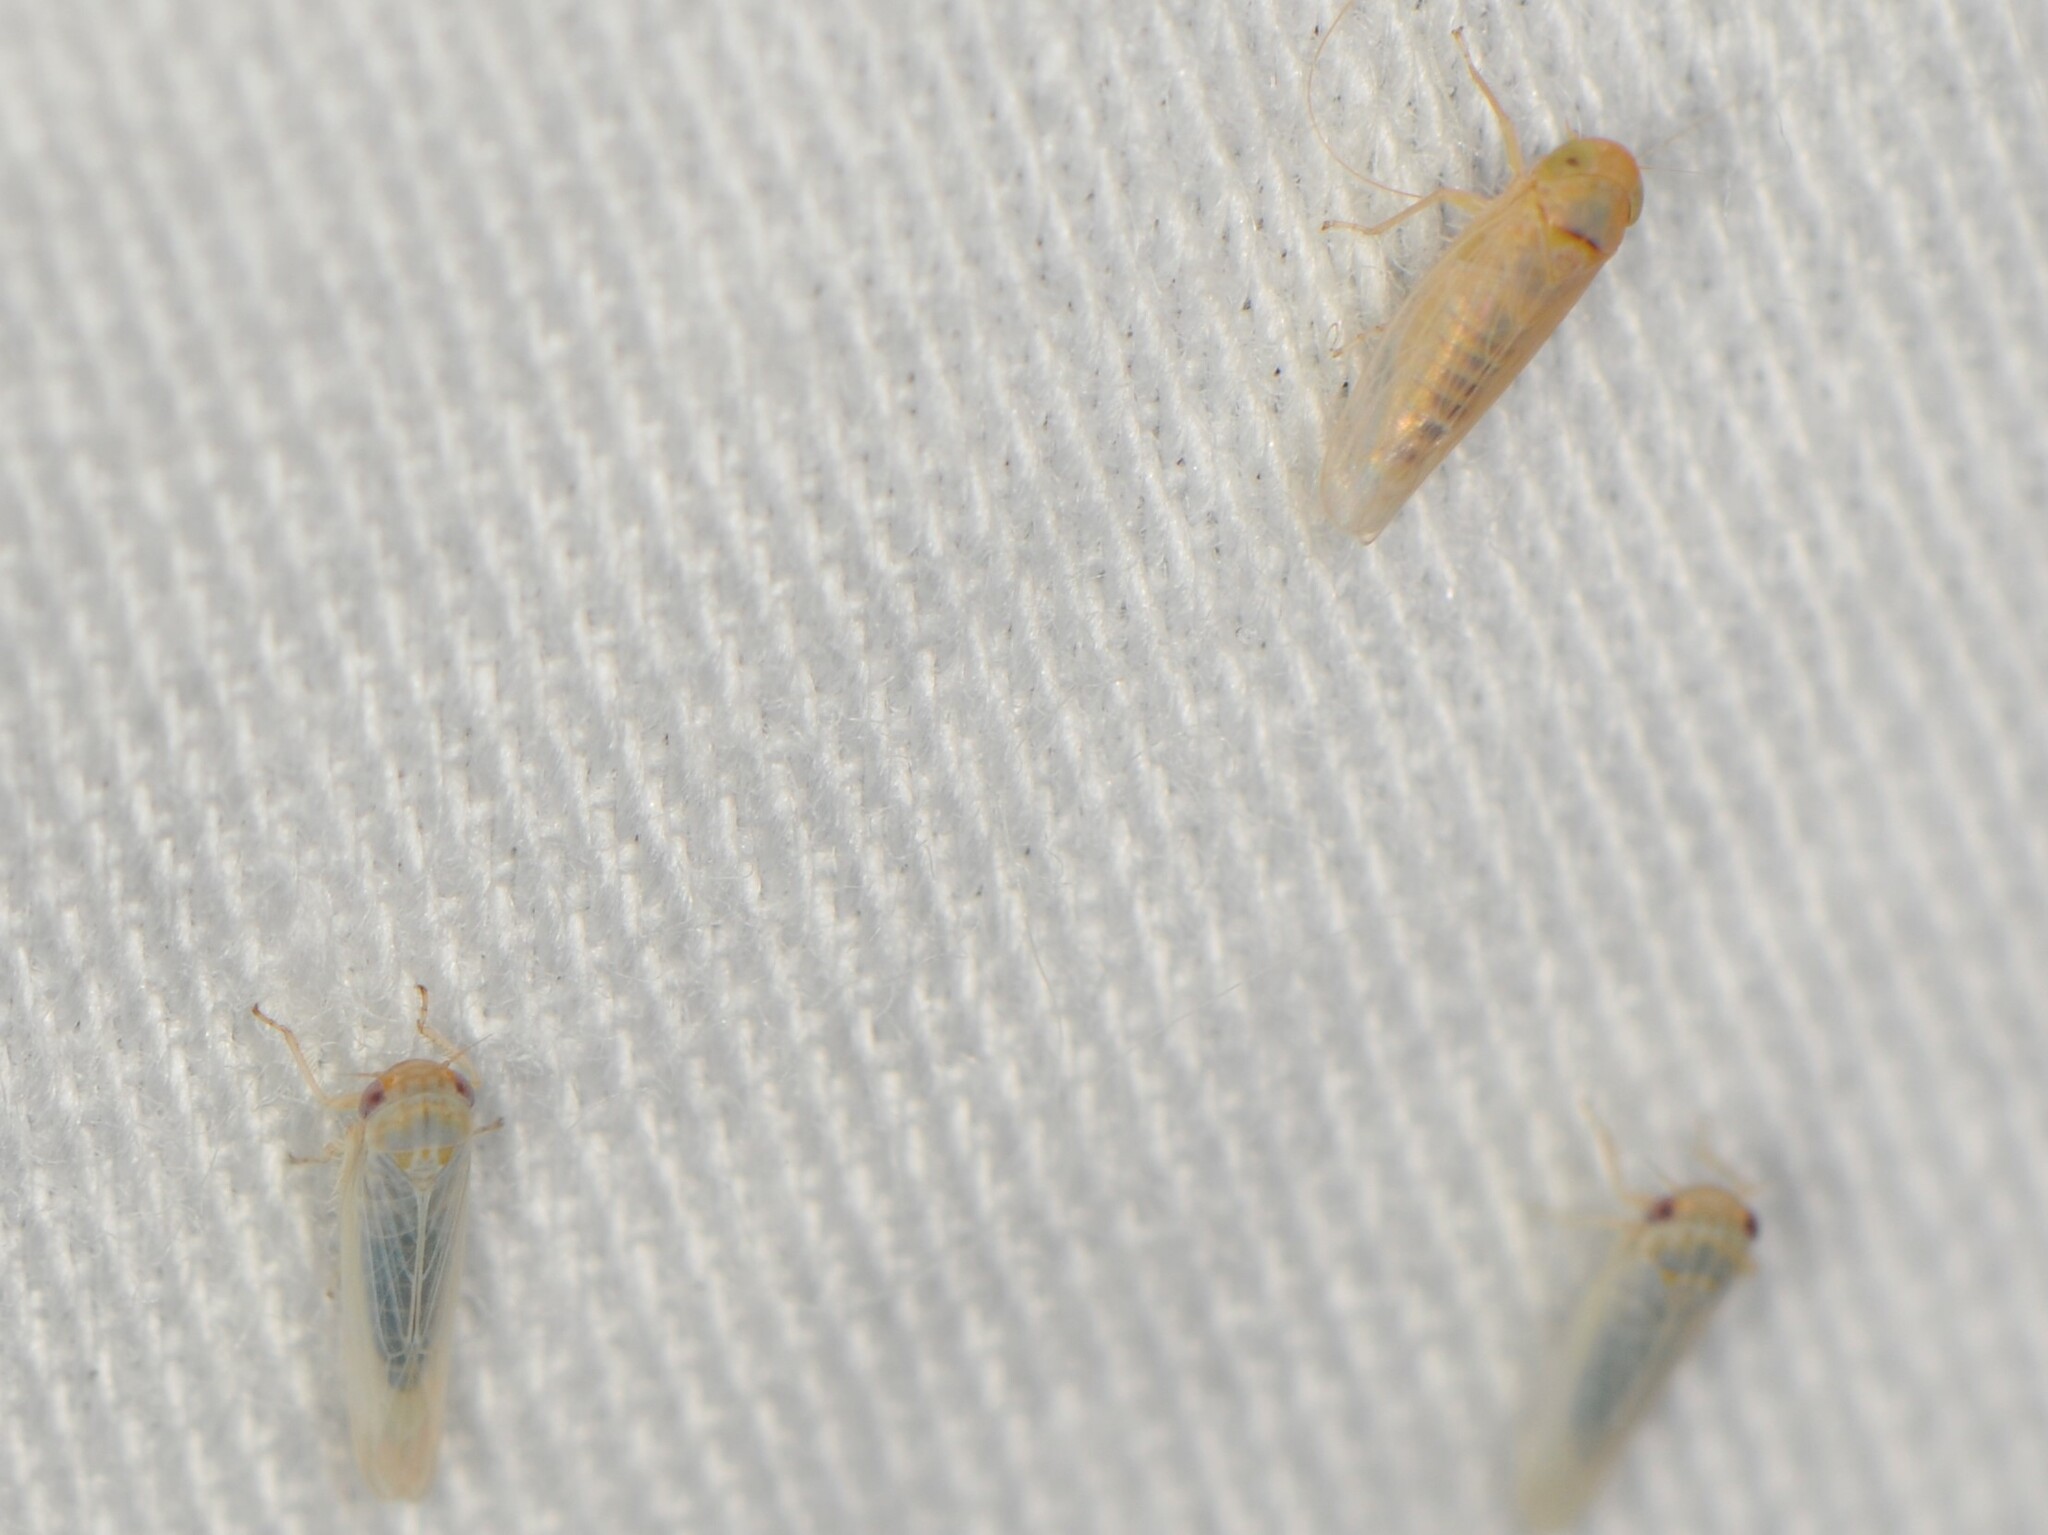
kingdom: Animalia
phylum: Arthropoda
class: Insecta
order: Hemiptera
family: Cicadellidae
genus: Balclutha
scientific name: Balclutha
